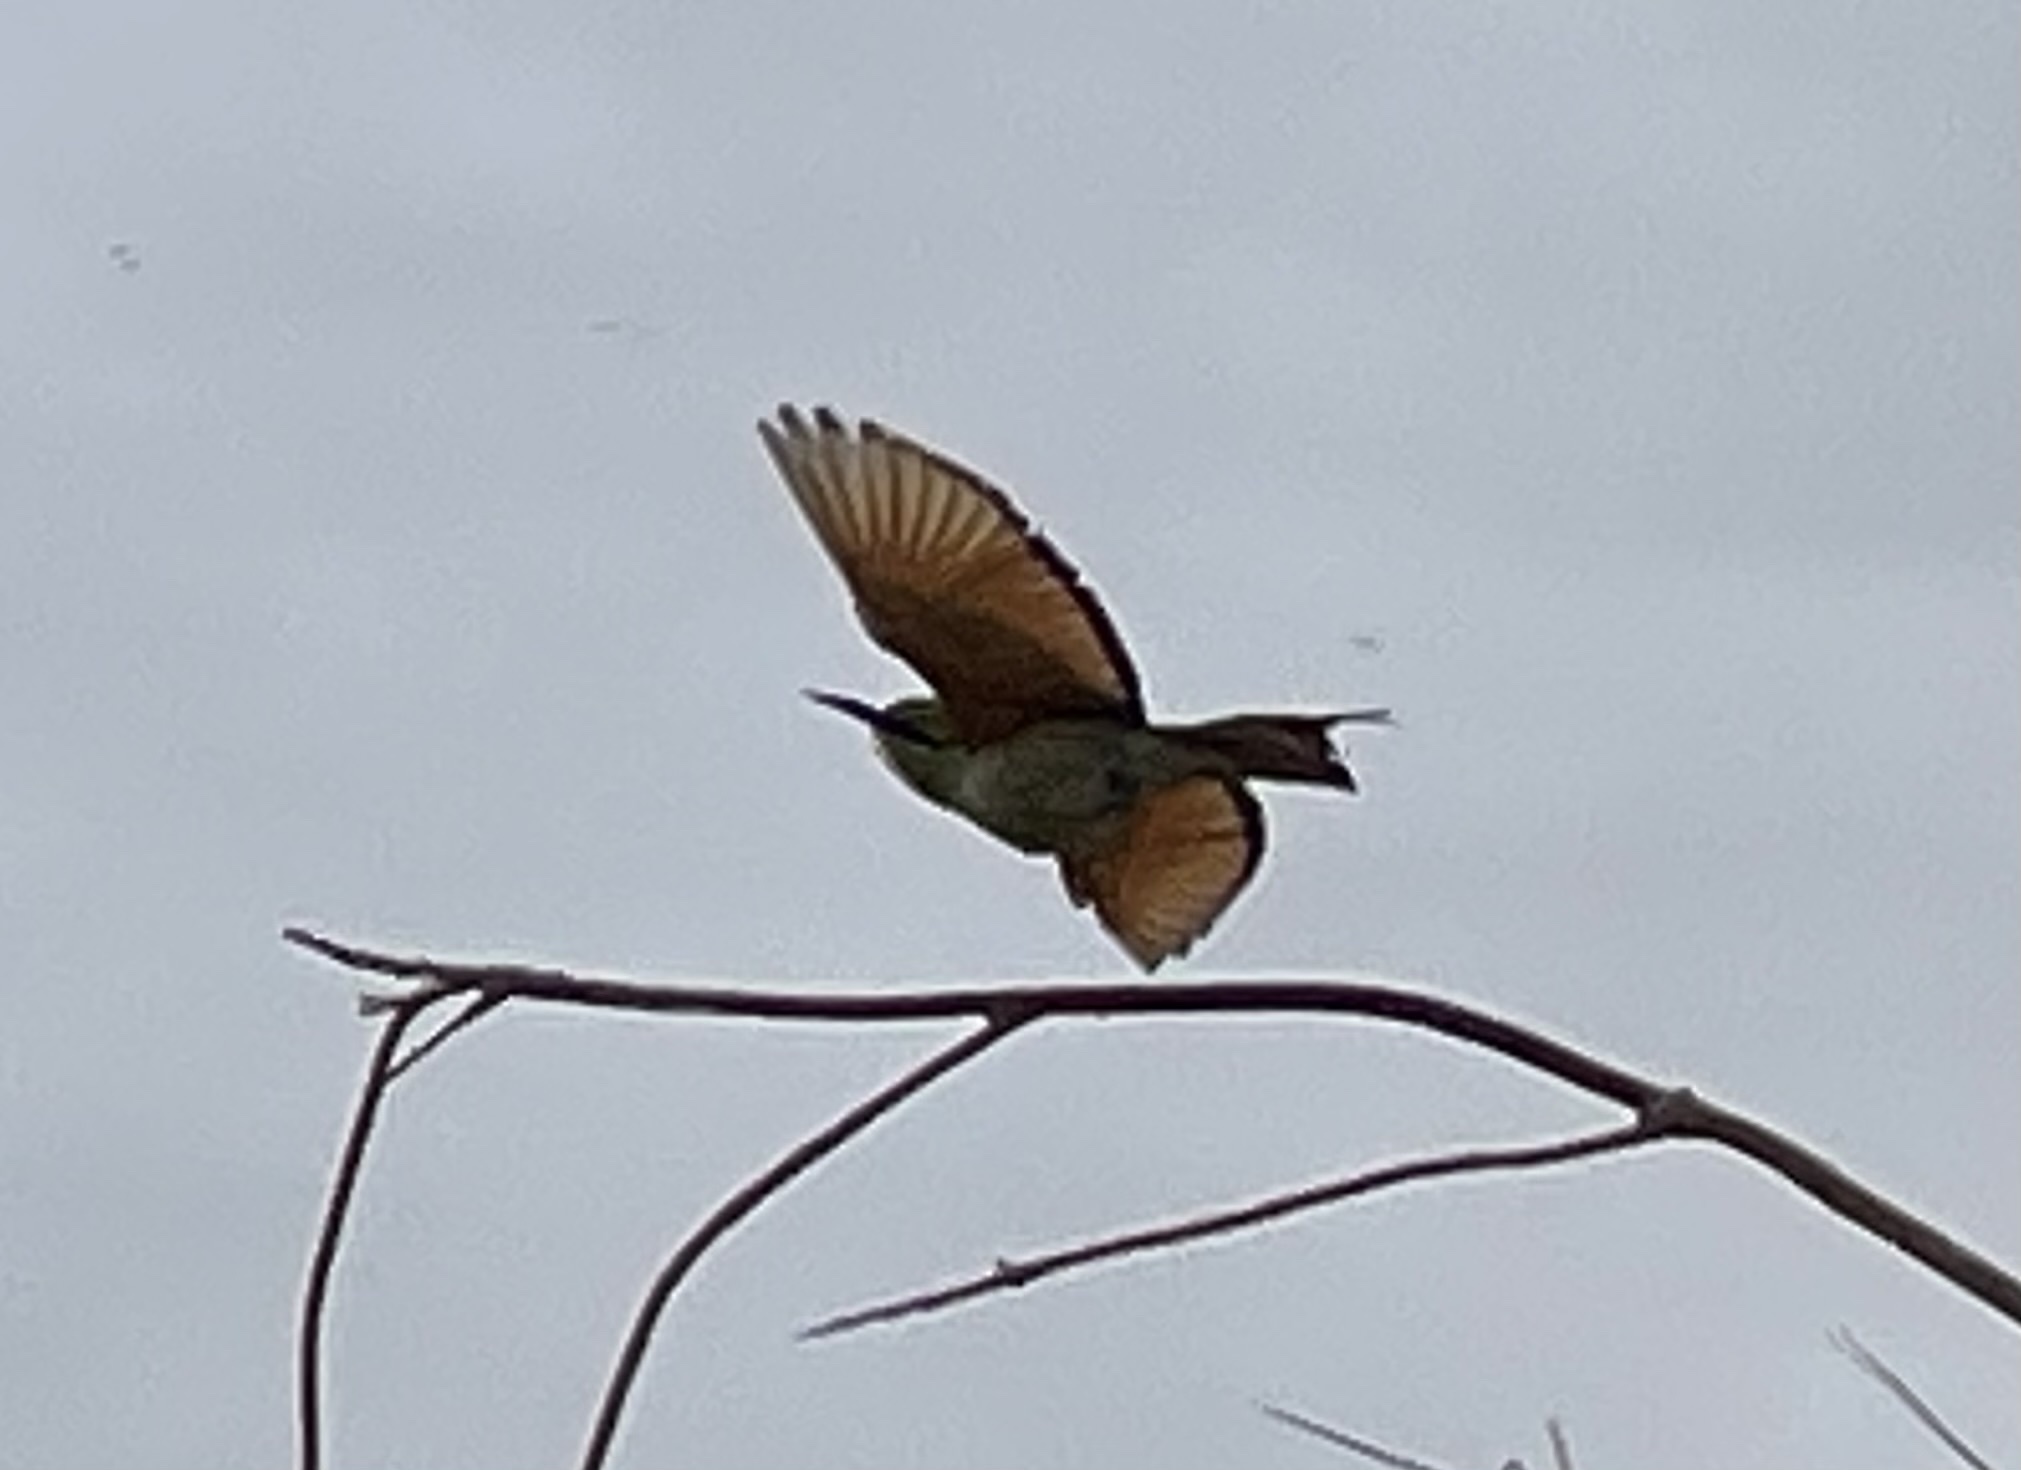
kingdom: Animalia
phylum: Chordata
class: Aves
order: Coraciiformes
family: Meropidae
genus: Merops
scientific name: Merops viridissimus
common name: African green bee-eater
